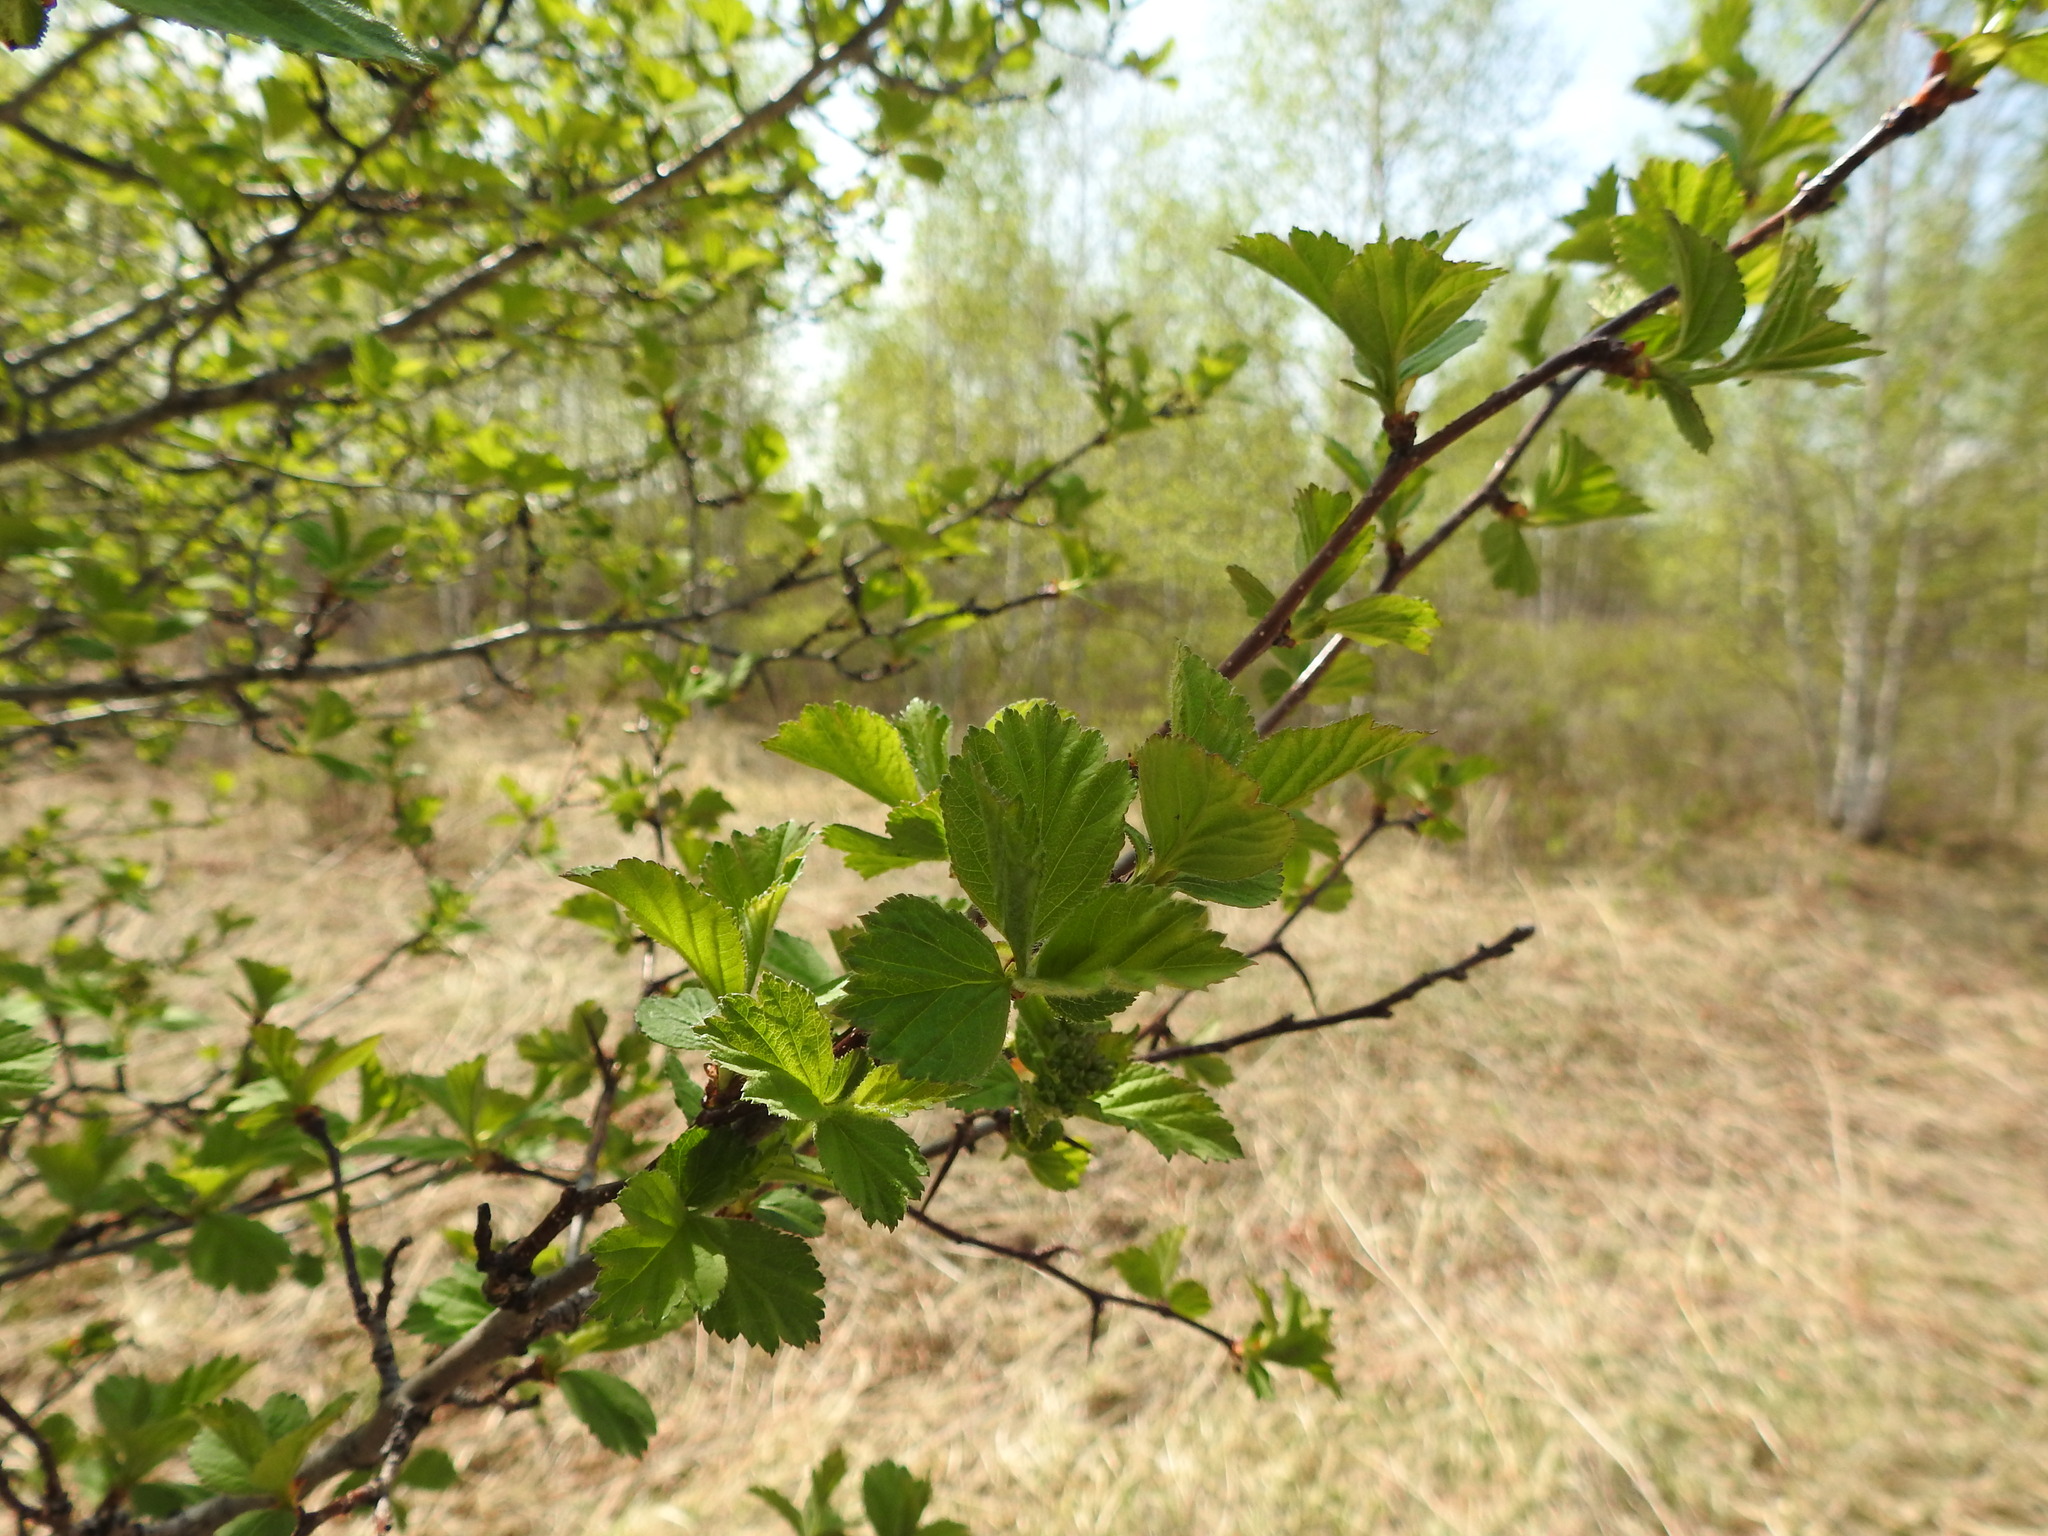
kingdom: Plantae
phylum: Tracheophyta
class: Magnoliopsida
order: Rosales
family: Rosaceae
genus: Crataegus
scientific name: Crataegus sanguinea
